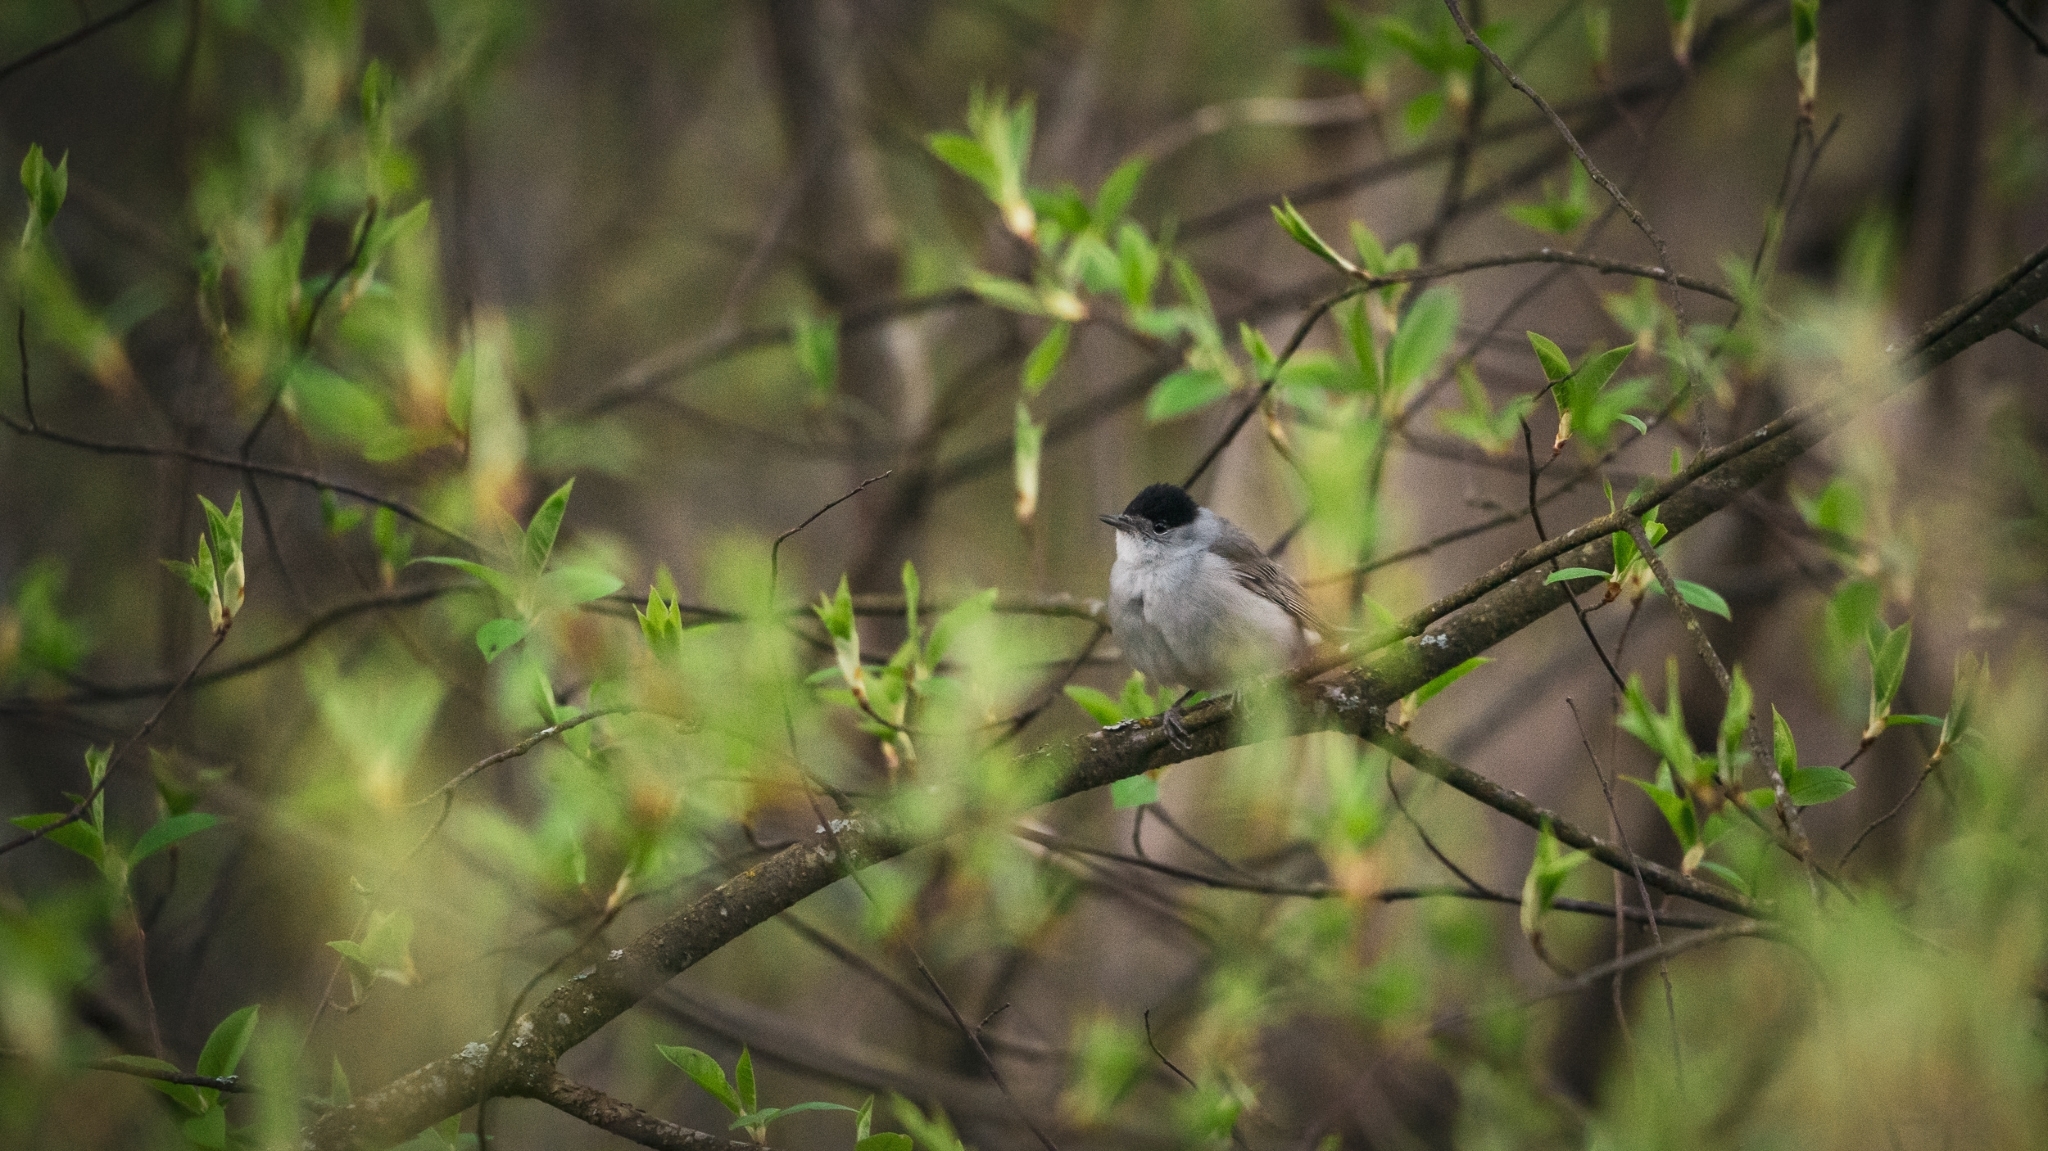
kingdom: Animalia
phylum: Chordata
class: Aves
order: Passeriformes
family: Sylviidae
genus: Sylvia
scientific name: Sylvia atricapilla
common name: Eurasian blackcap
